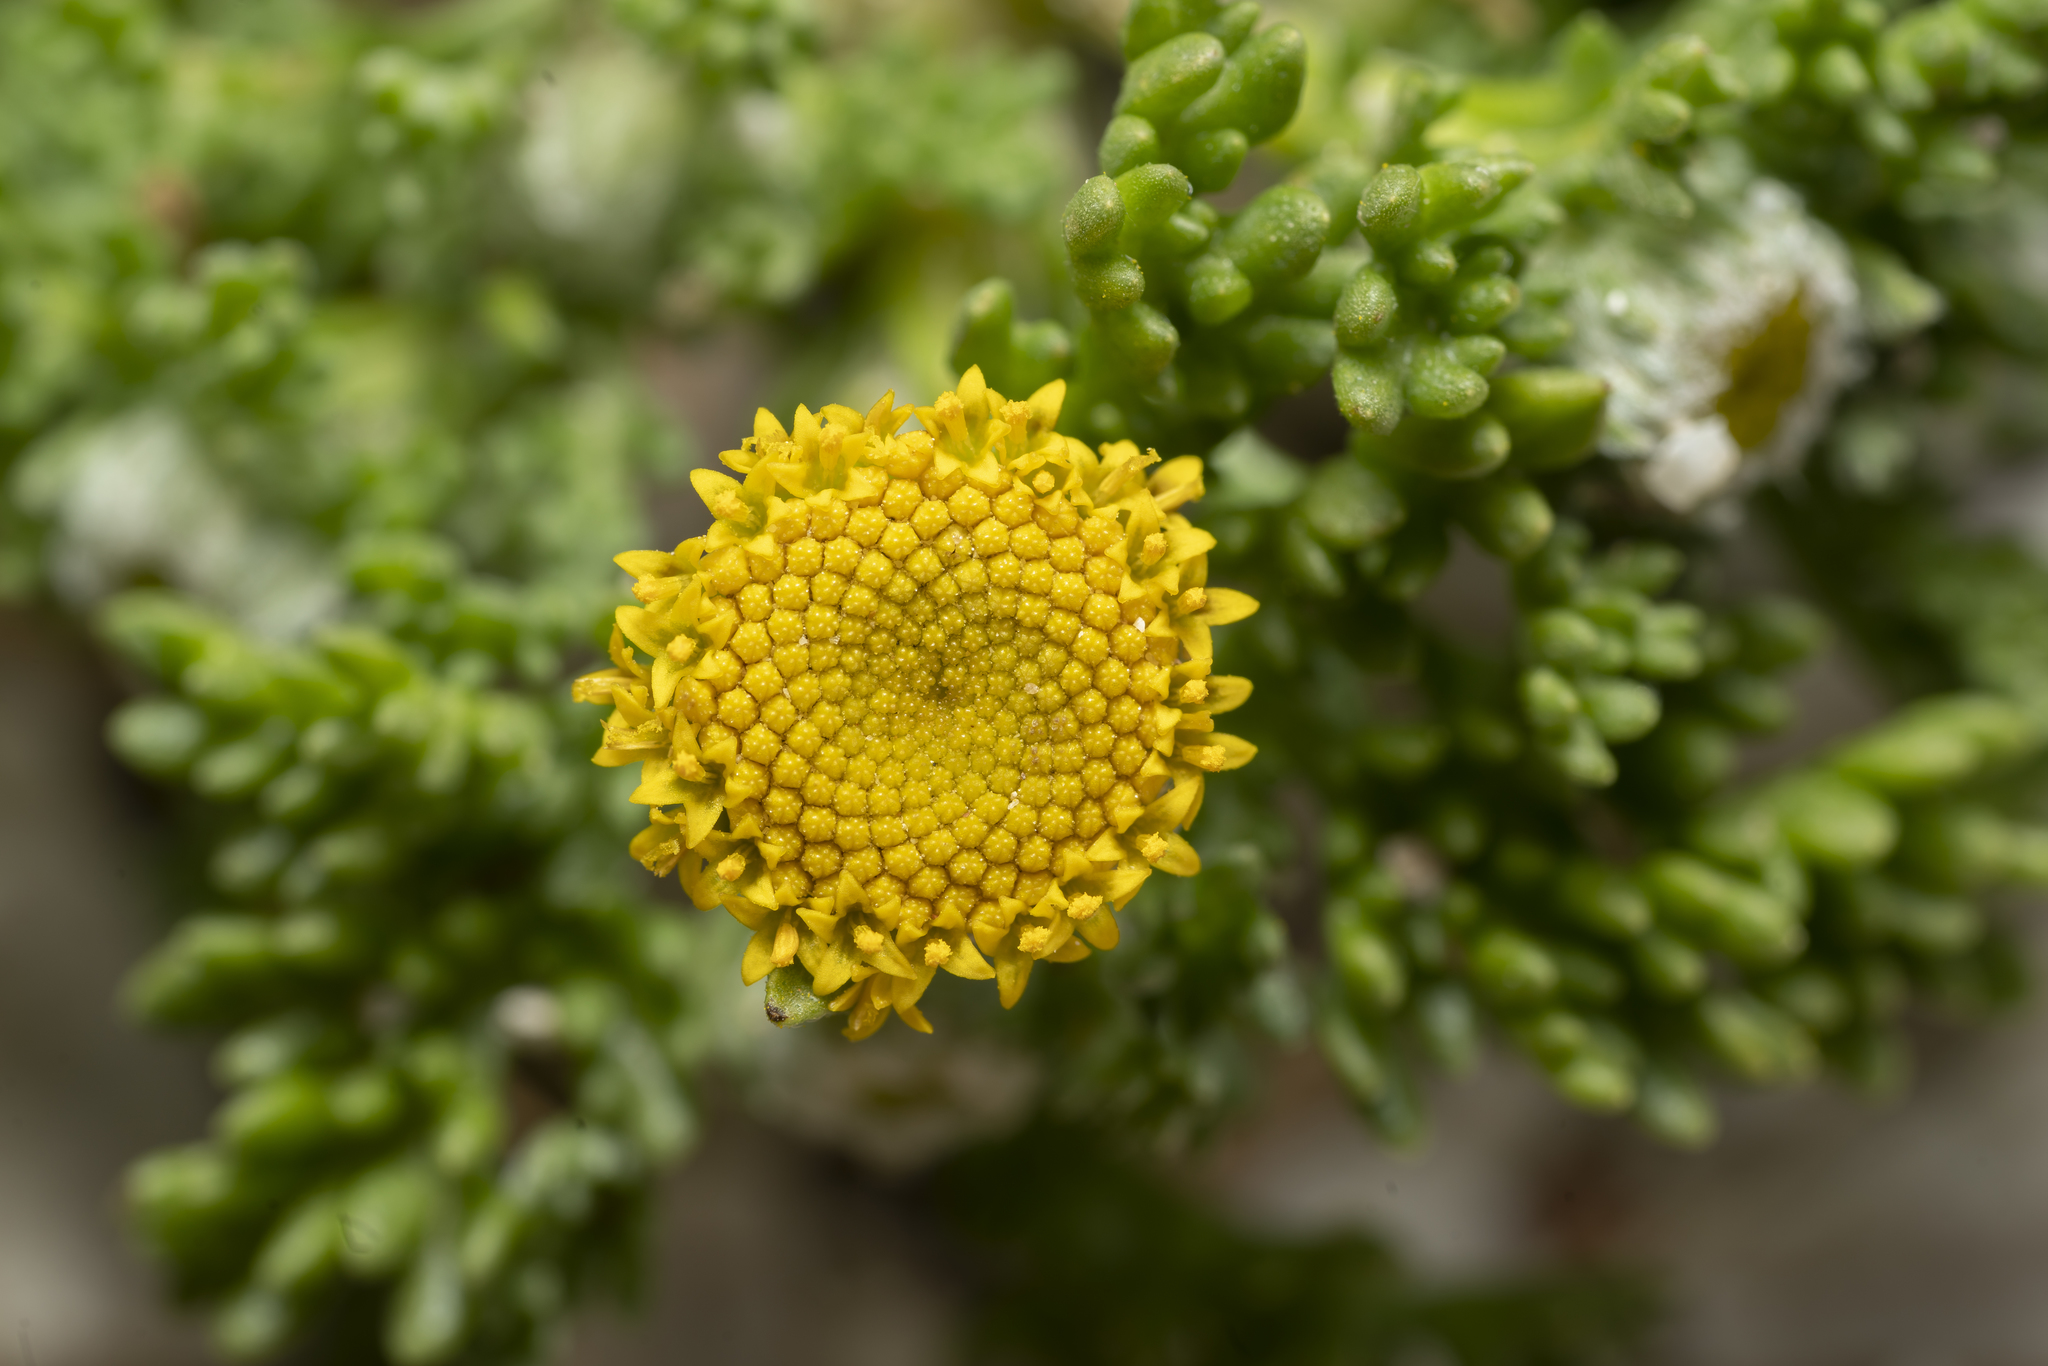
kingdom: Plantae
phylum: Tracheophyta
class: Magnoliopsida
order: Asterales
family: Asteraceae
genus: Anthemis
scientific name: Anthemis rigida
